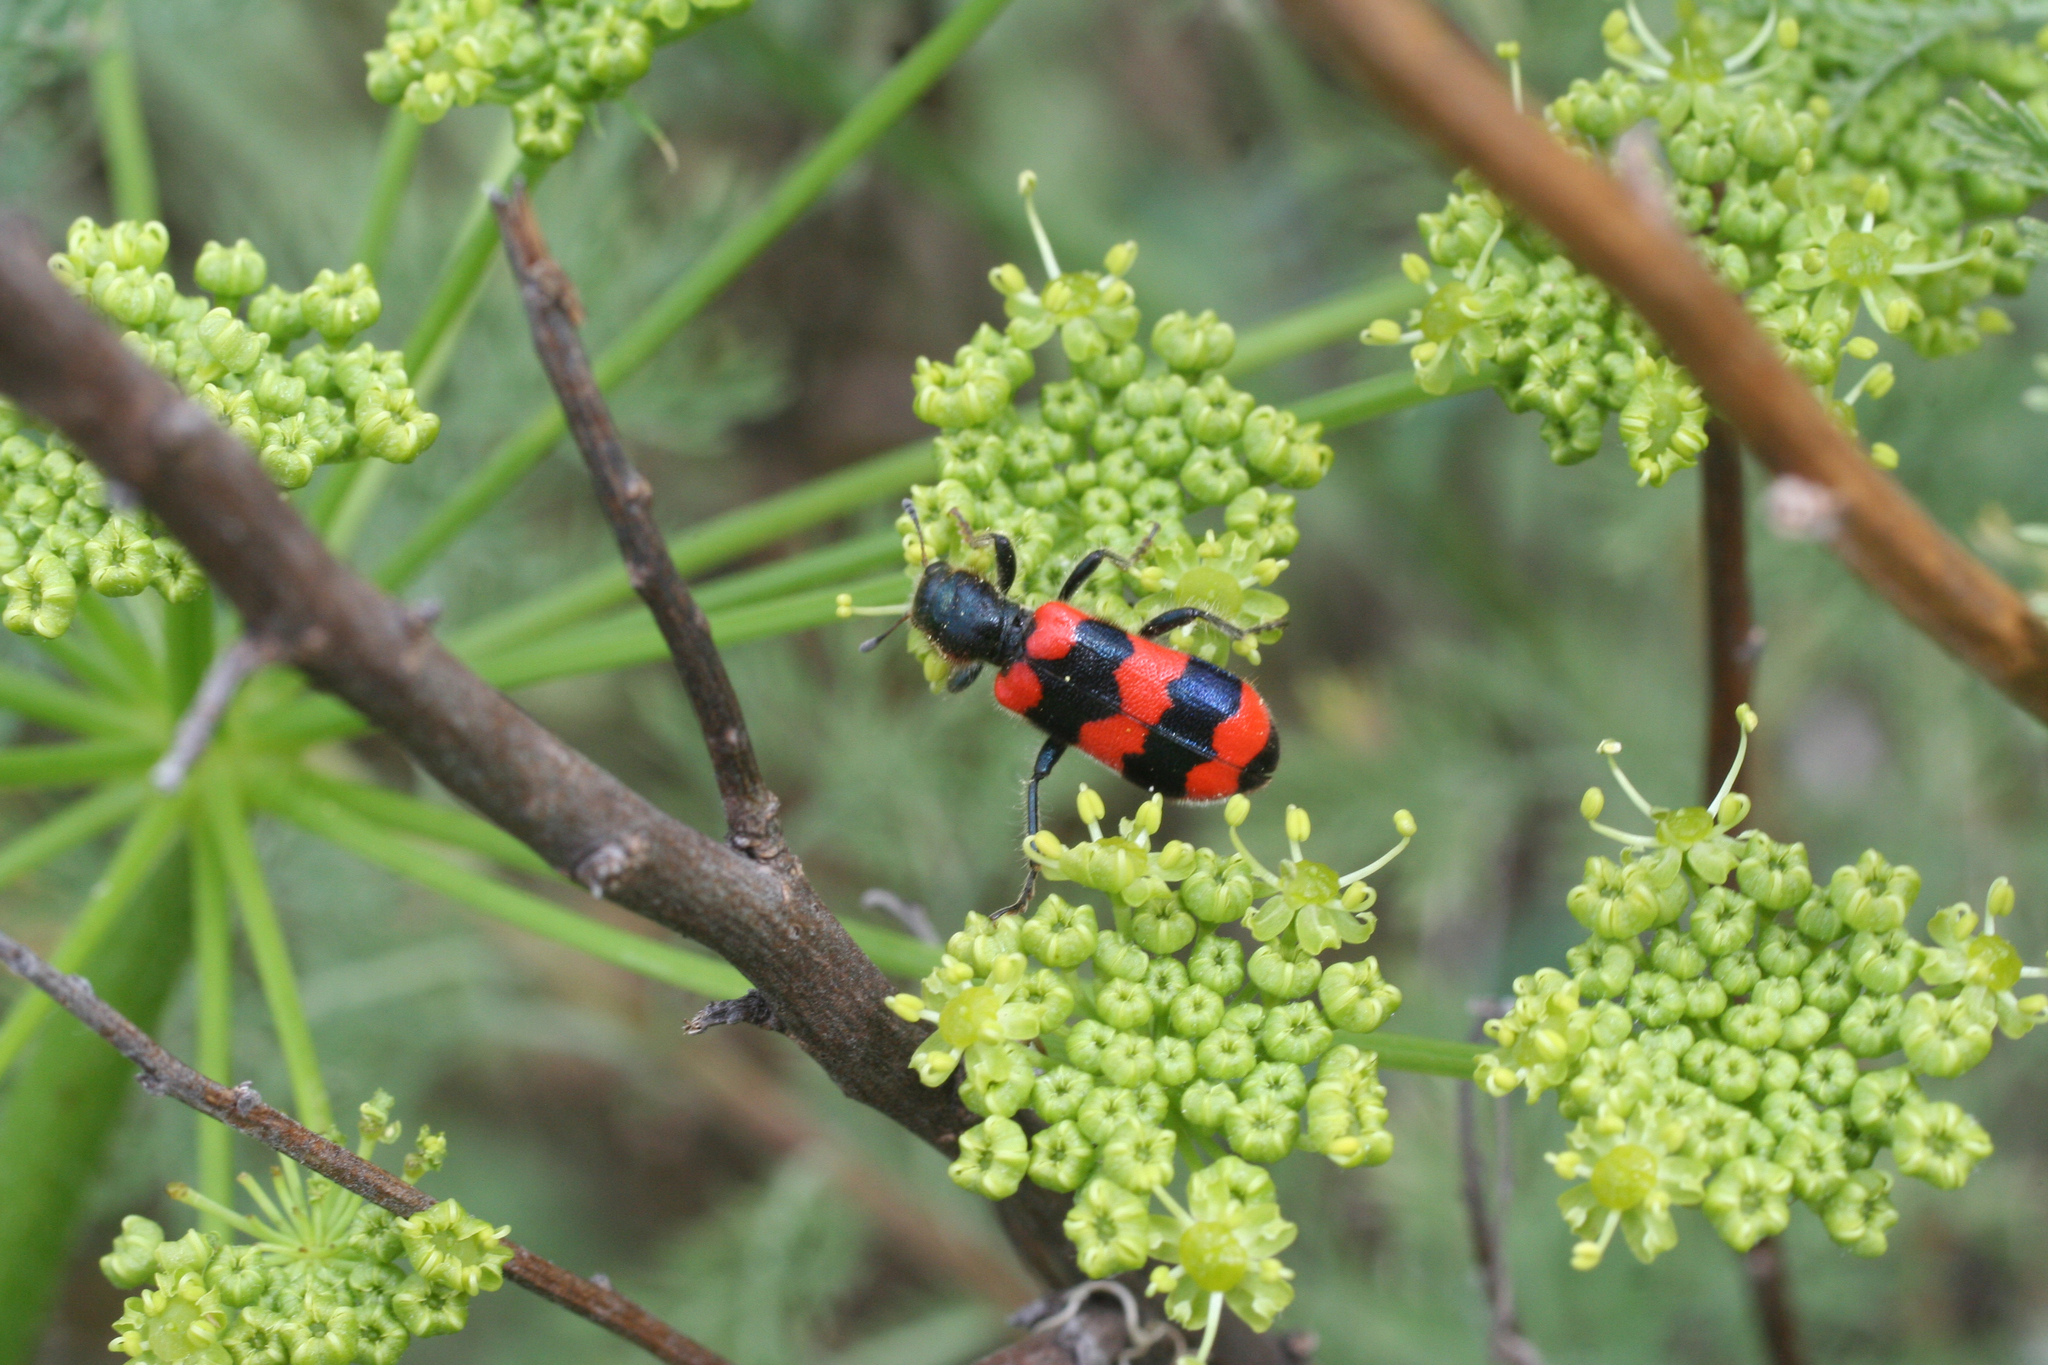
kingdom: Animalia
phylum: Arthropoda
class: Insecta
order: Coleoptera
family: Cleridae
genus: Trichodes
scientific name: Trichodes apiarius
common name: Bee-eating beetle
